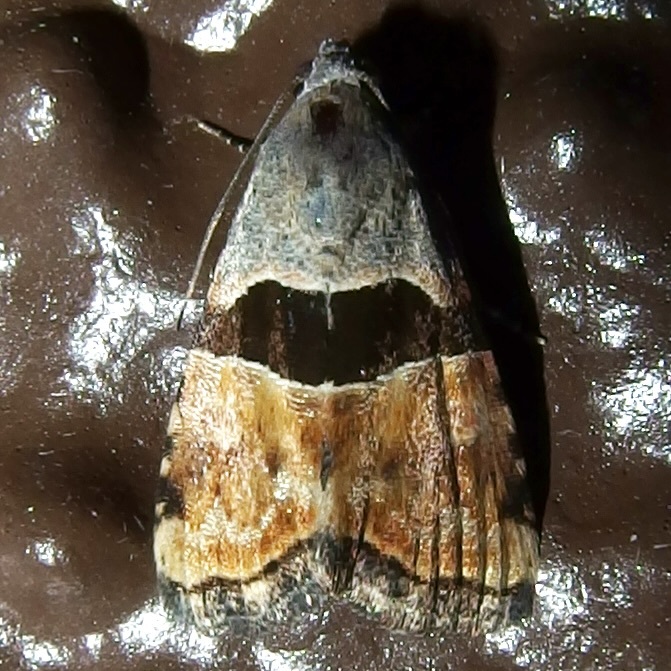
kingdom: Animalia
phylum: Arthropoda
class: Insecta
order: Lepidoptera
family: Noctuidae
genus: Cobubatha
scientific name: Cobubatha lixiva
